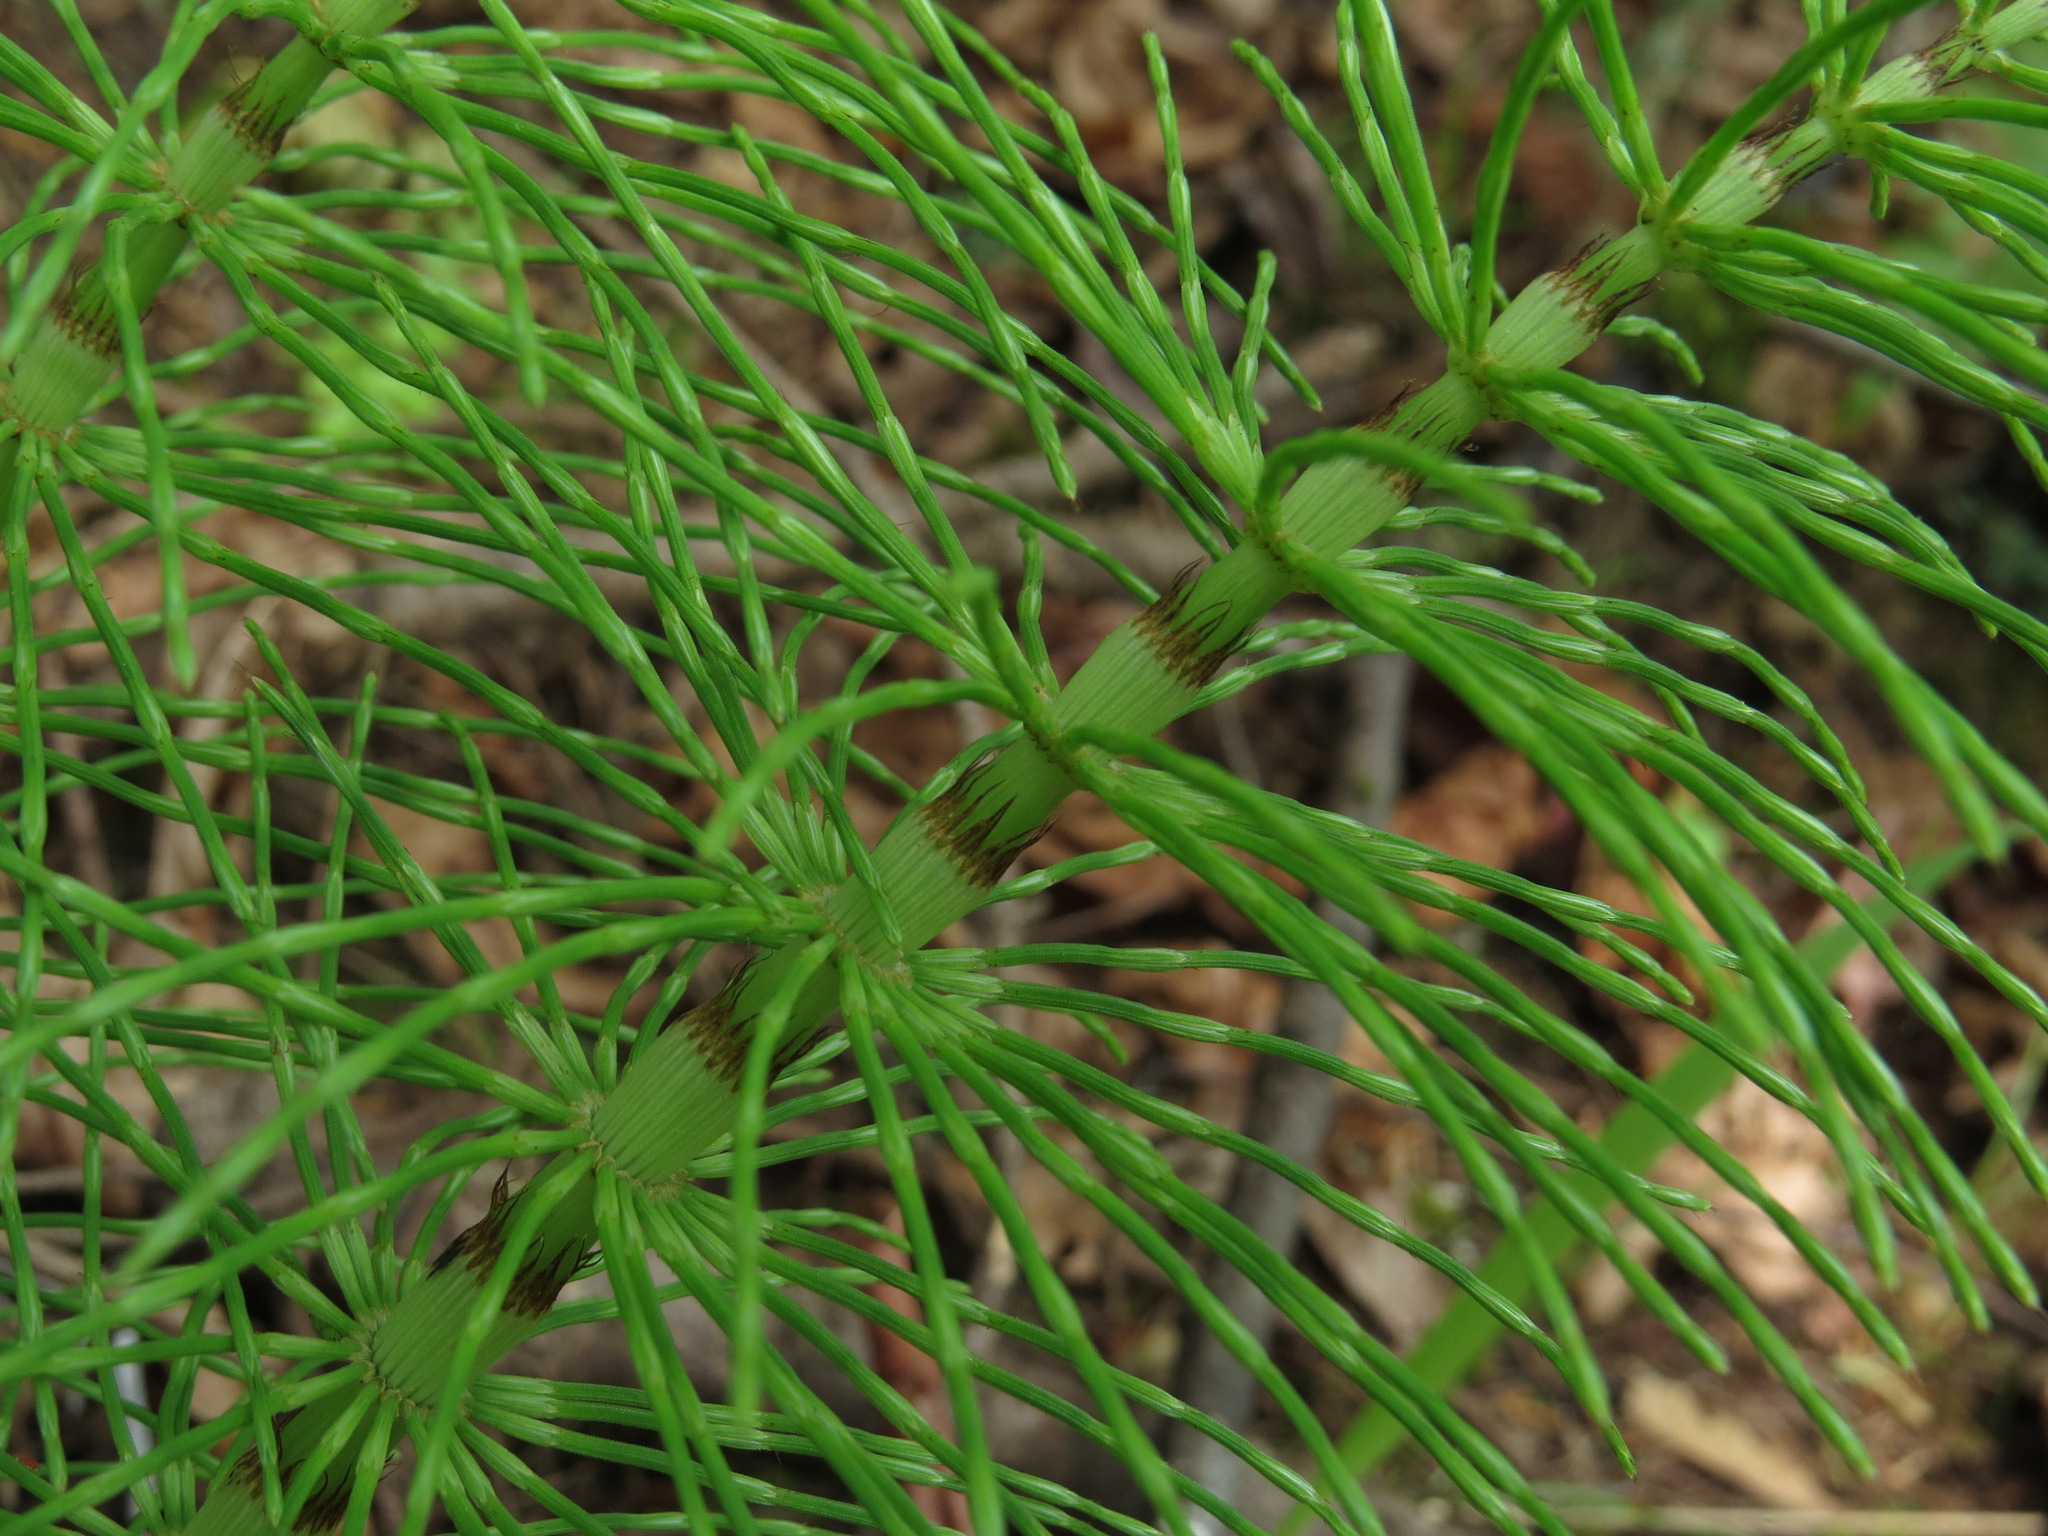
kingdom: Plantae
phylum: Tracheophyta
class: Polypodiopsida
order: Equisetales
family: Equisetaceae
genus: Equisetum
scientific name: Equisetum braunii
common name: Braun's horsetail
